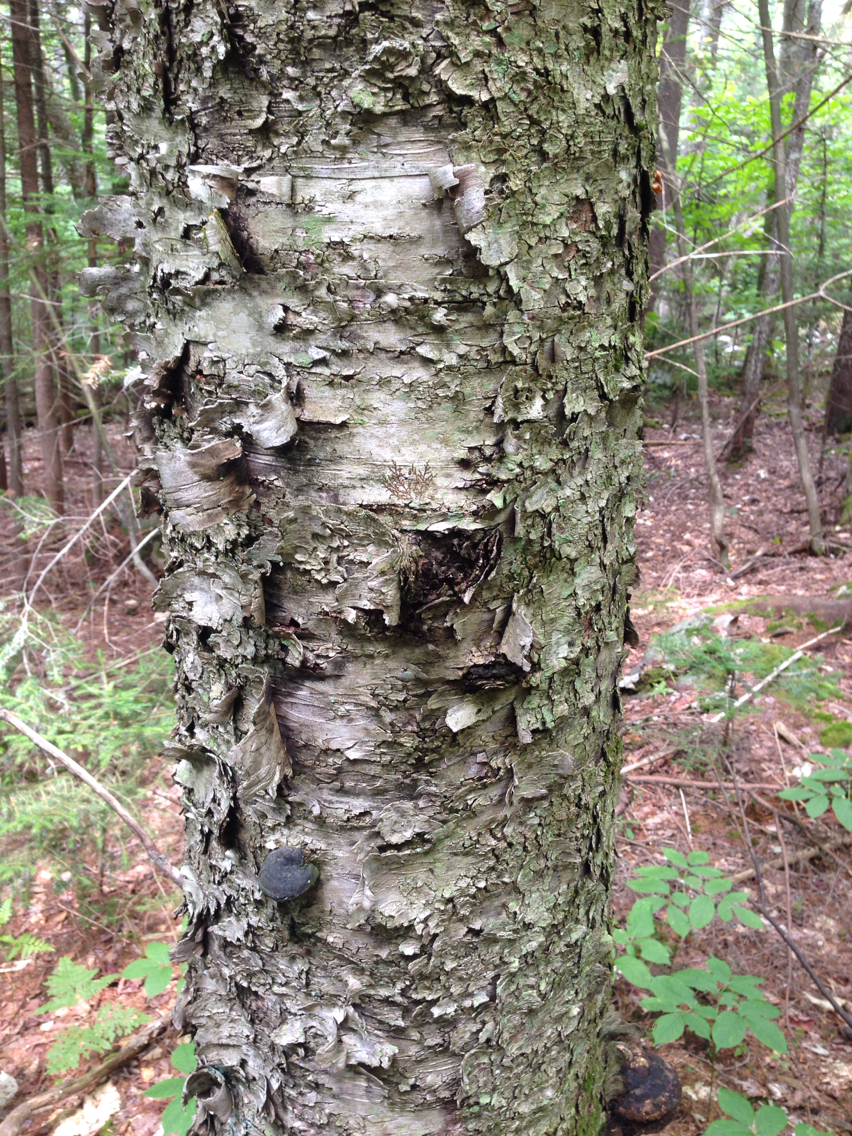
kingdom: Plantae
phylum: Tracheophyta
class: Magnoliopsida
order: Fagales
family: Betulaceae
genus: Betula
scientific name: Betula alleghaniensis
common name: Yellow birch
